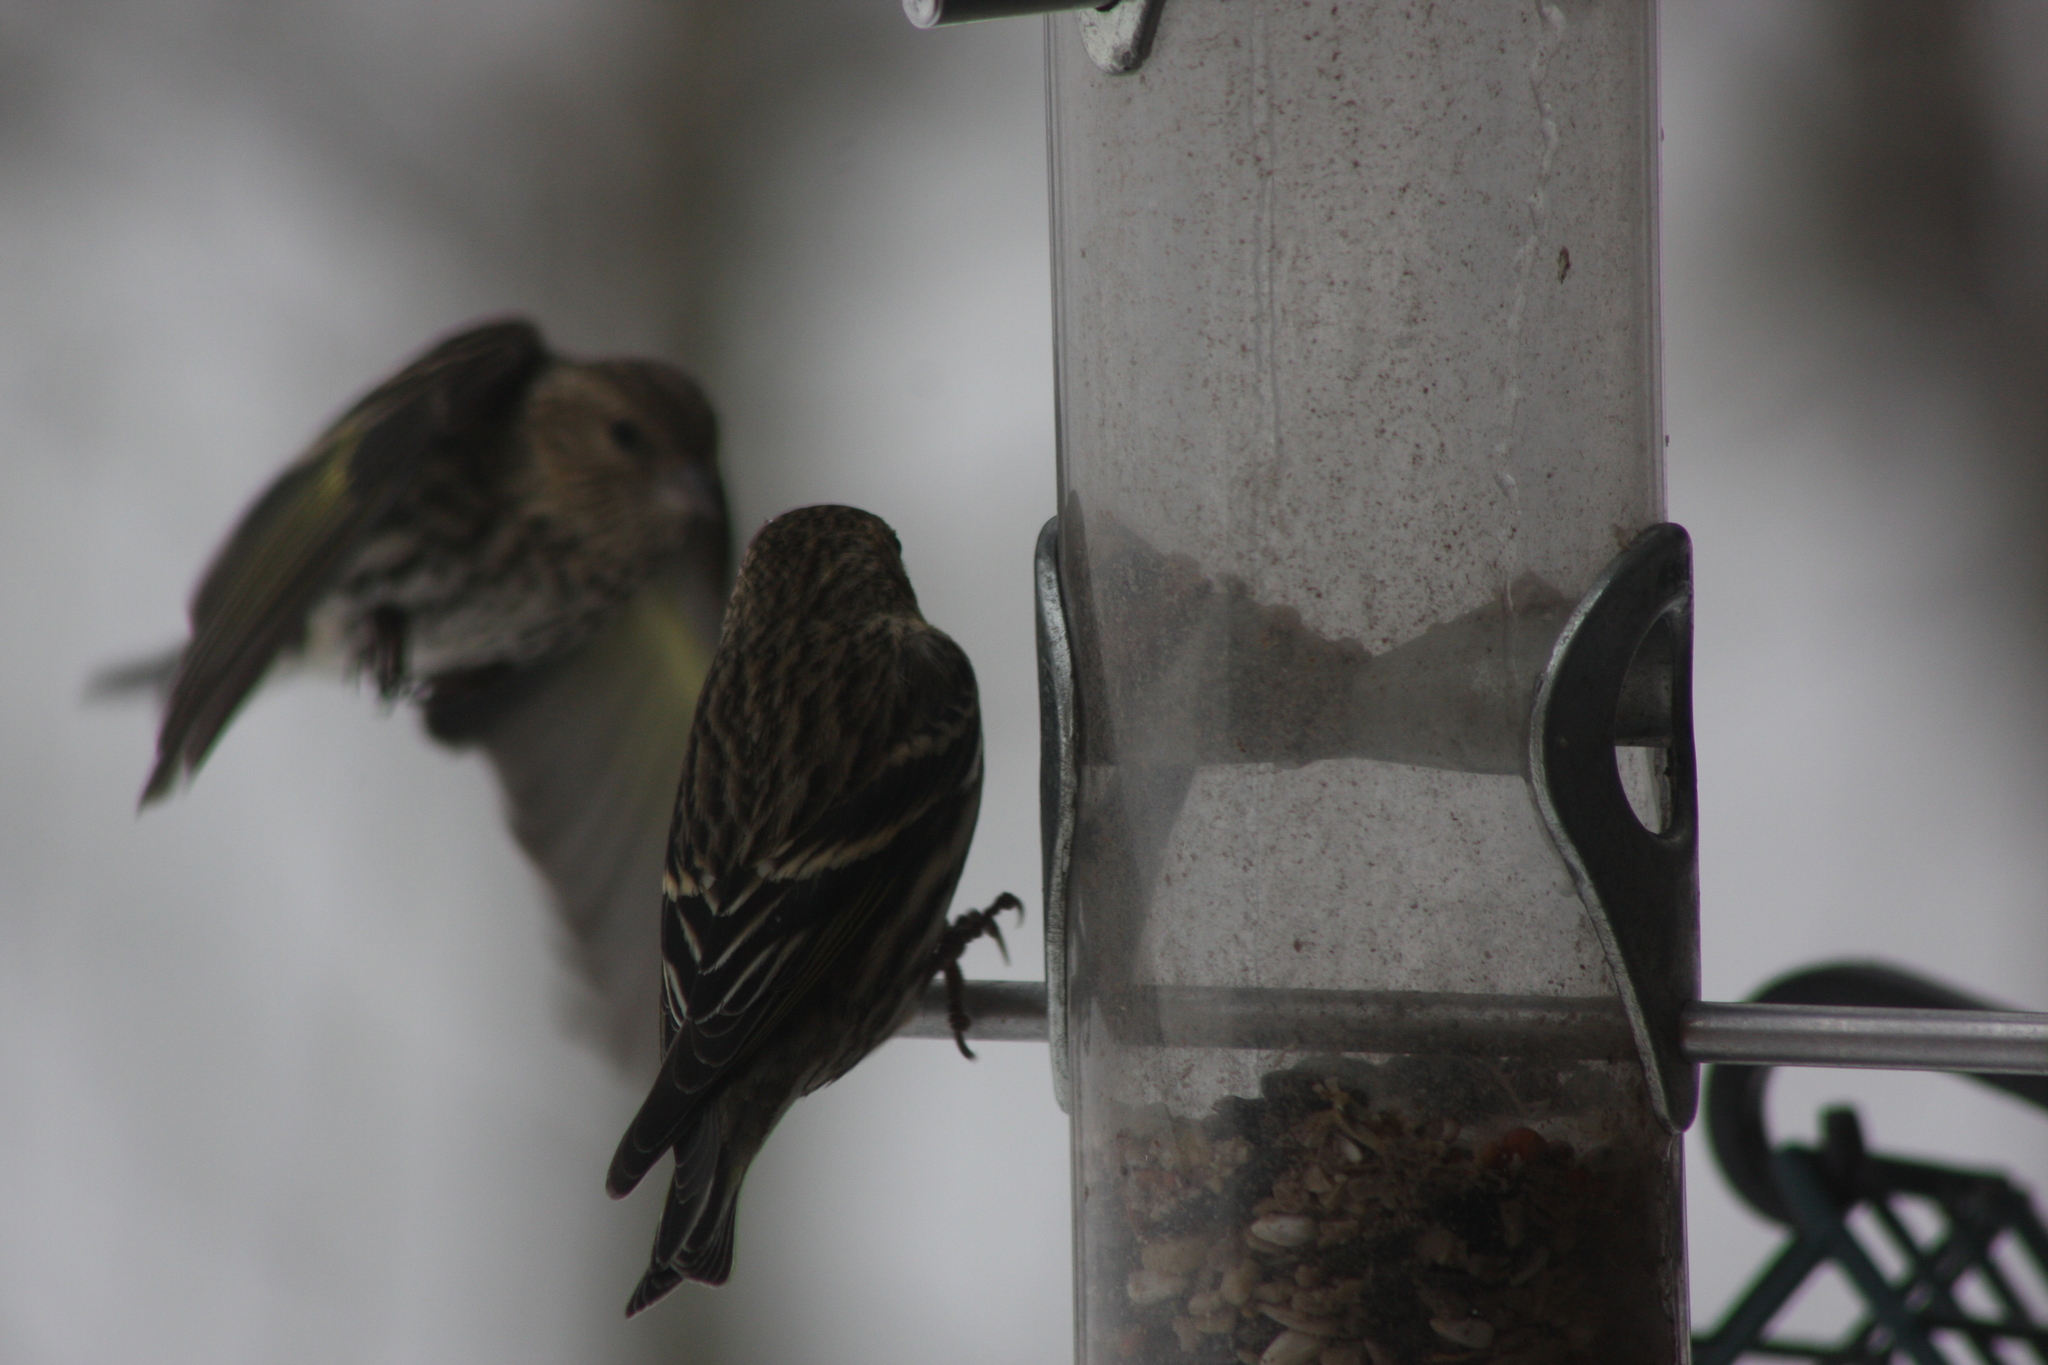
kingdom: Animalia
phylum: Chordata
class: Aves
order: Passeriformes
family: Fringillidae
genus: Spinus
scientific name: Spinus pinus
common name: Pine siskin
